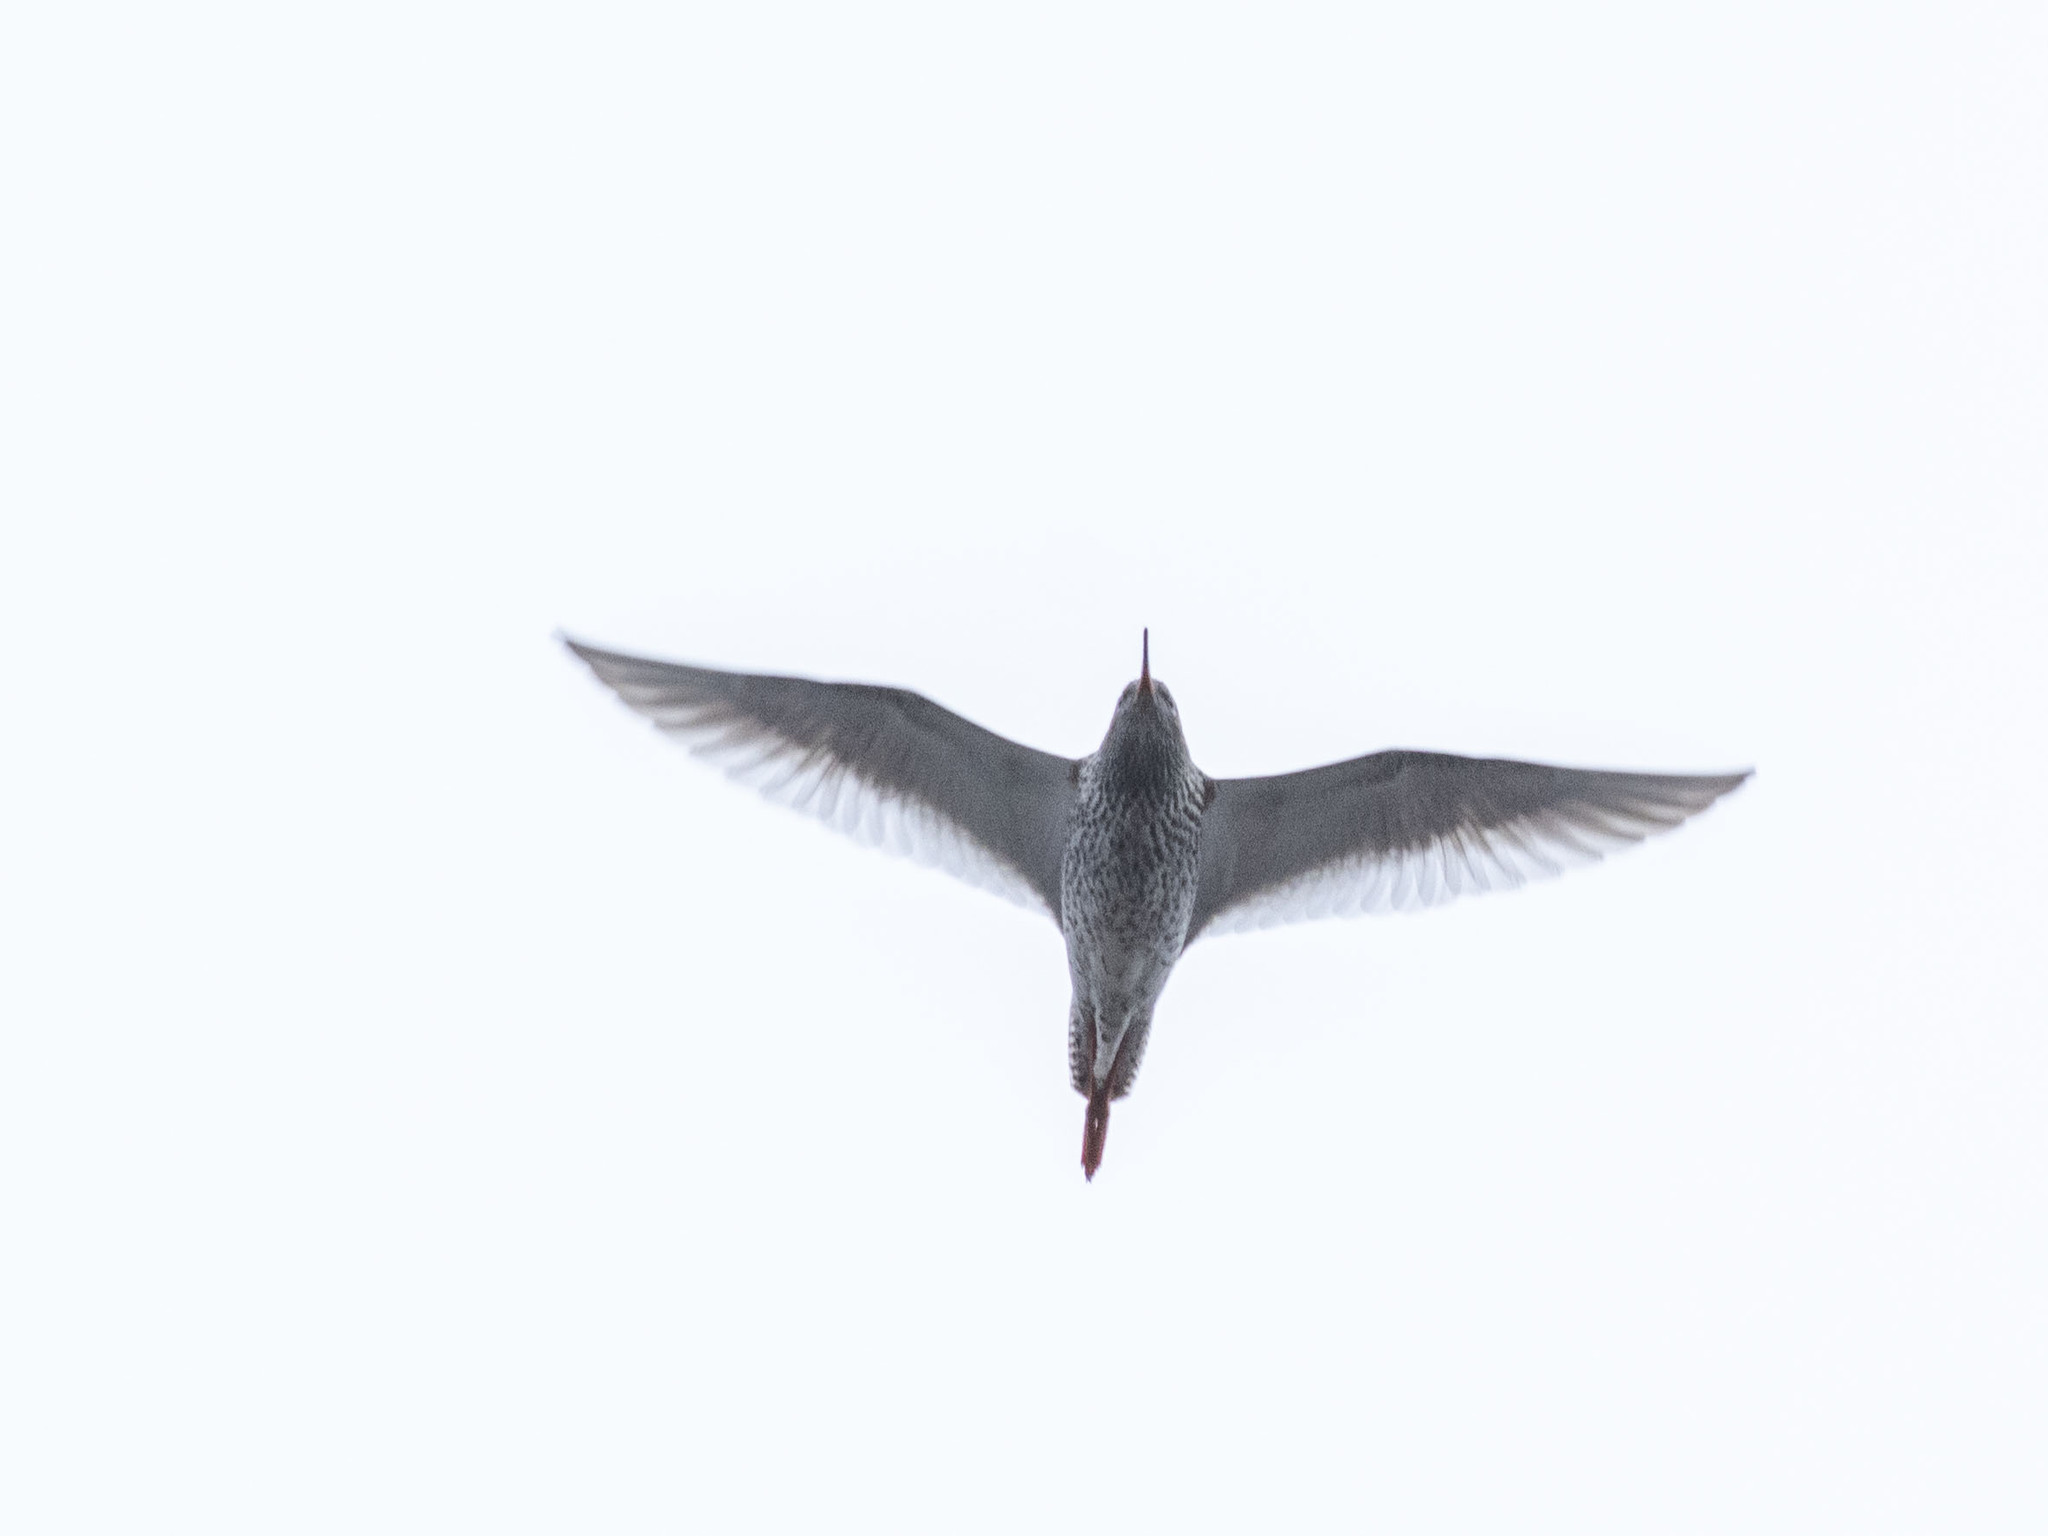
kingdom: Animalia
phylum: Chordata
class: Aves
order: Charadriiformes
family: Scolopacidae
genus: Tringa
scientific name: Tringa totanus
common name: Common redshank
